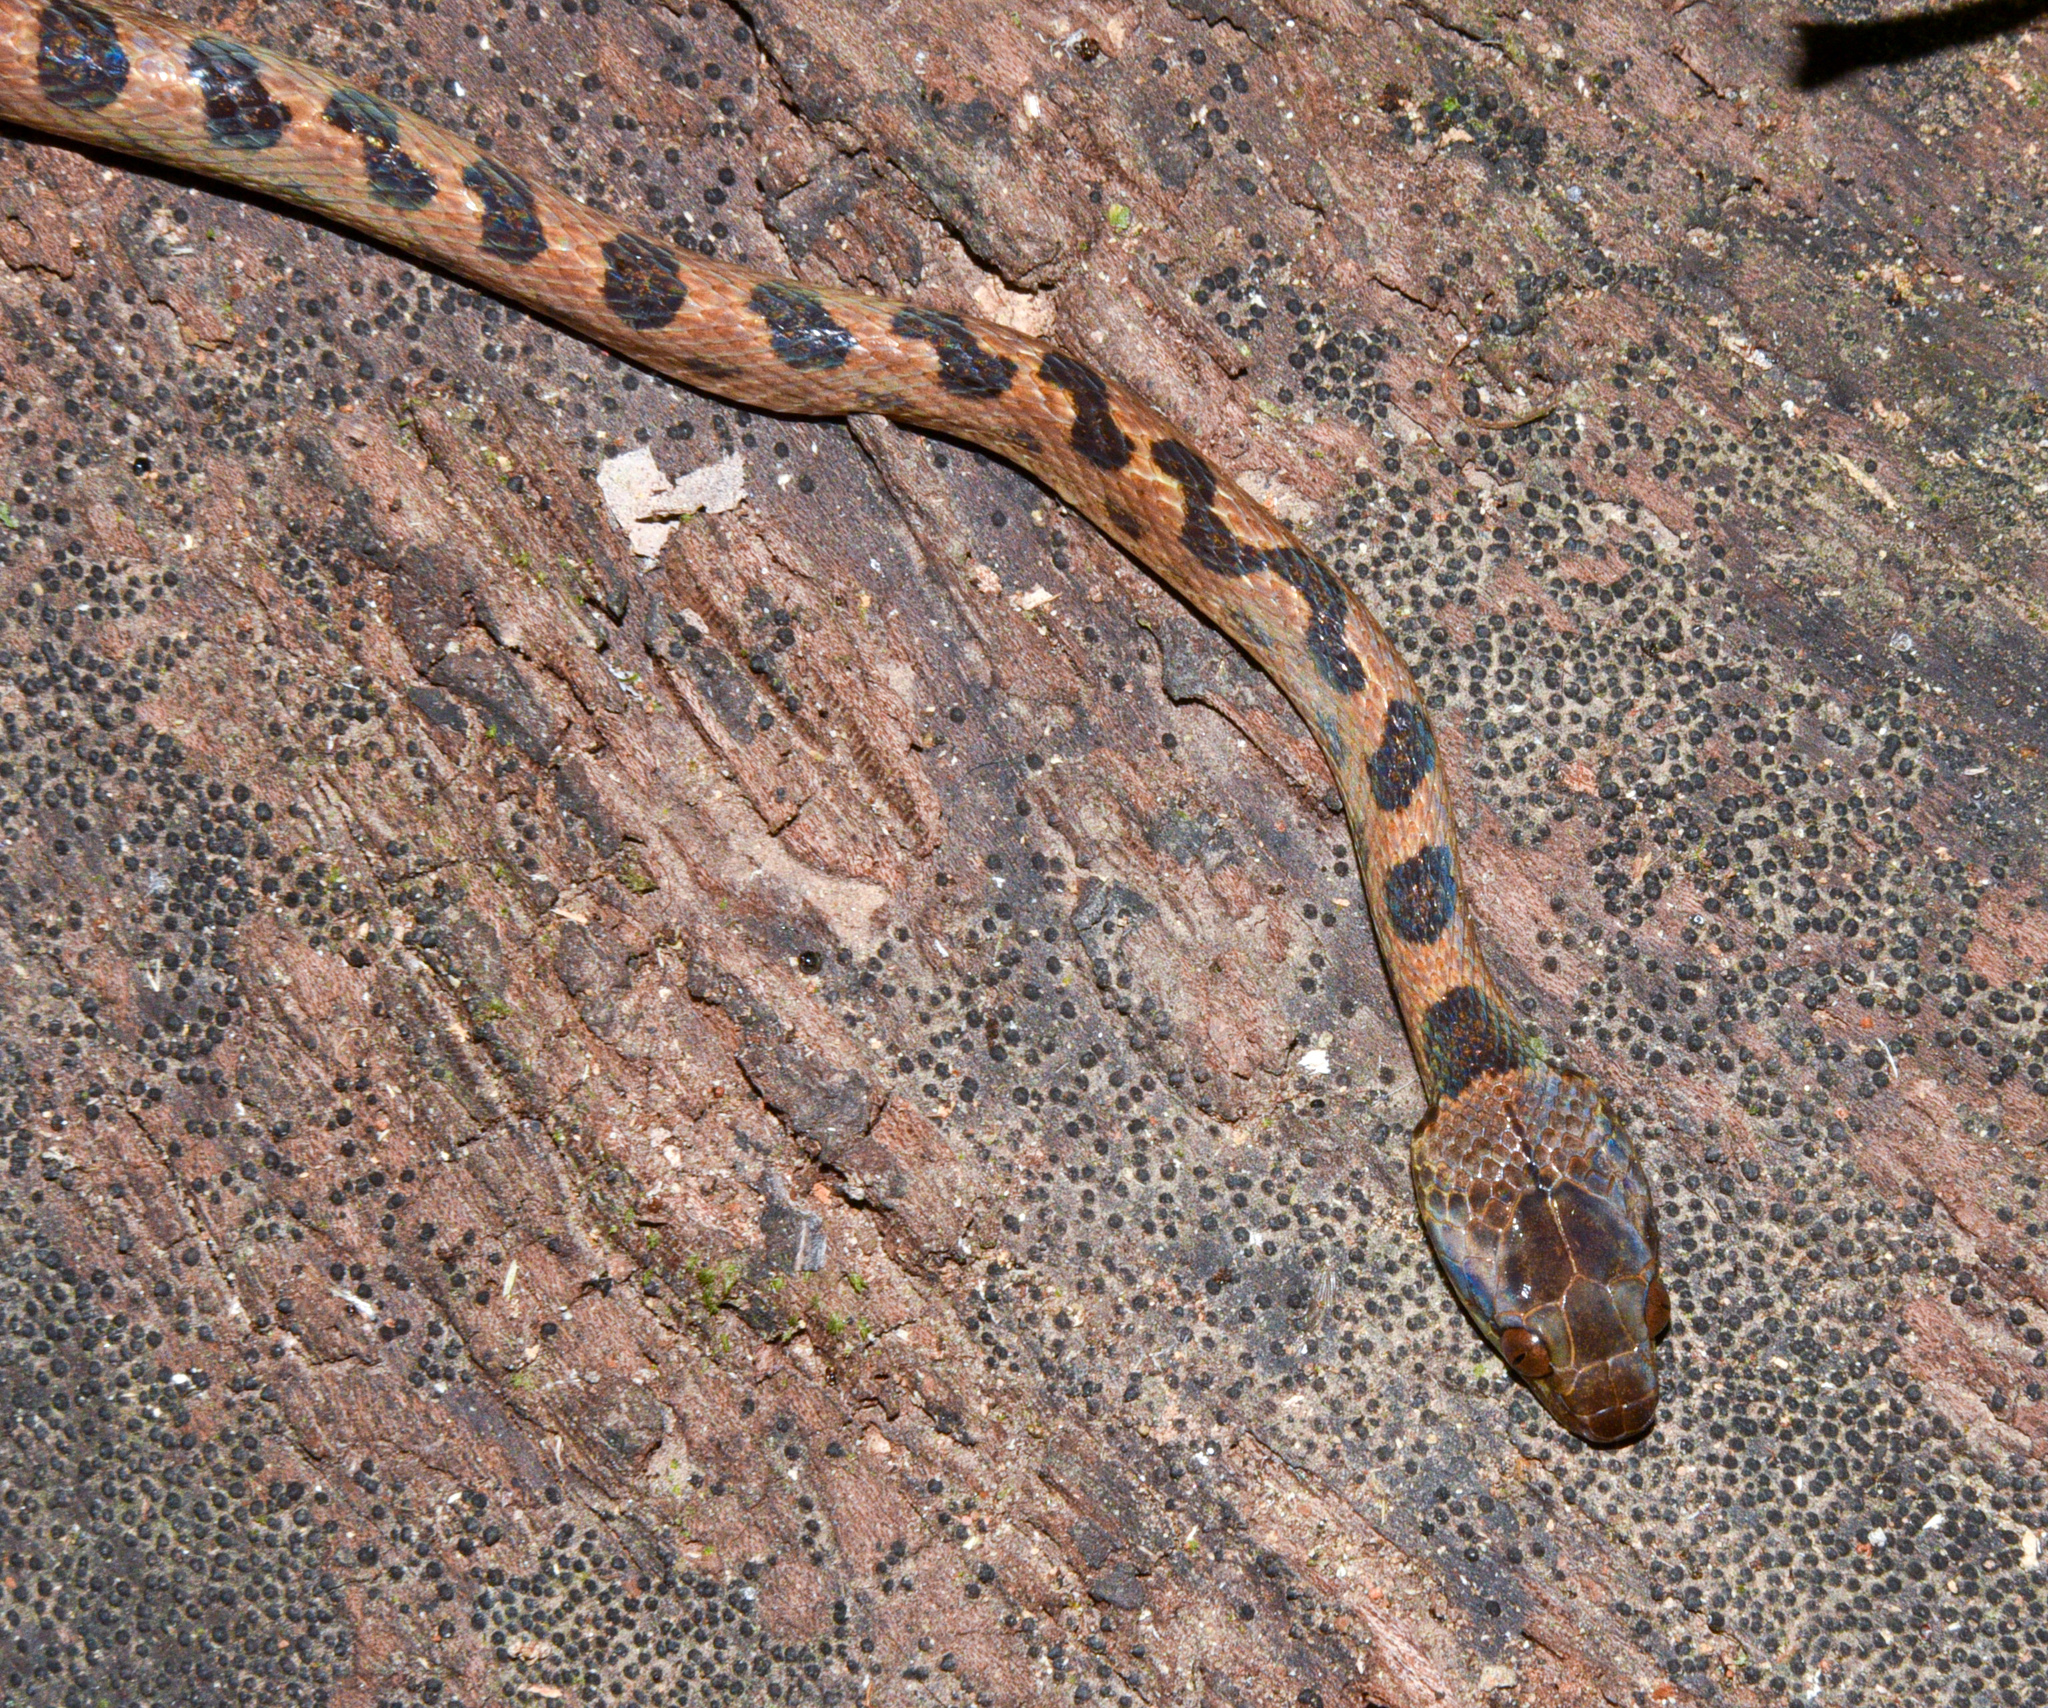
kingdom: Animalia
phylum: Chordata
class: Squamata
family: Colubridae
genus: Leptodeira
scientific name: Leptodeira rhombifera
